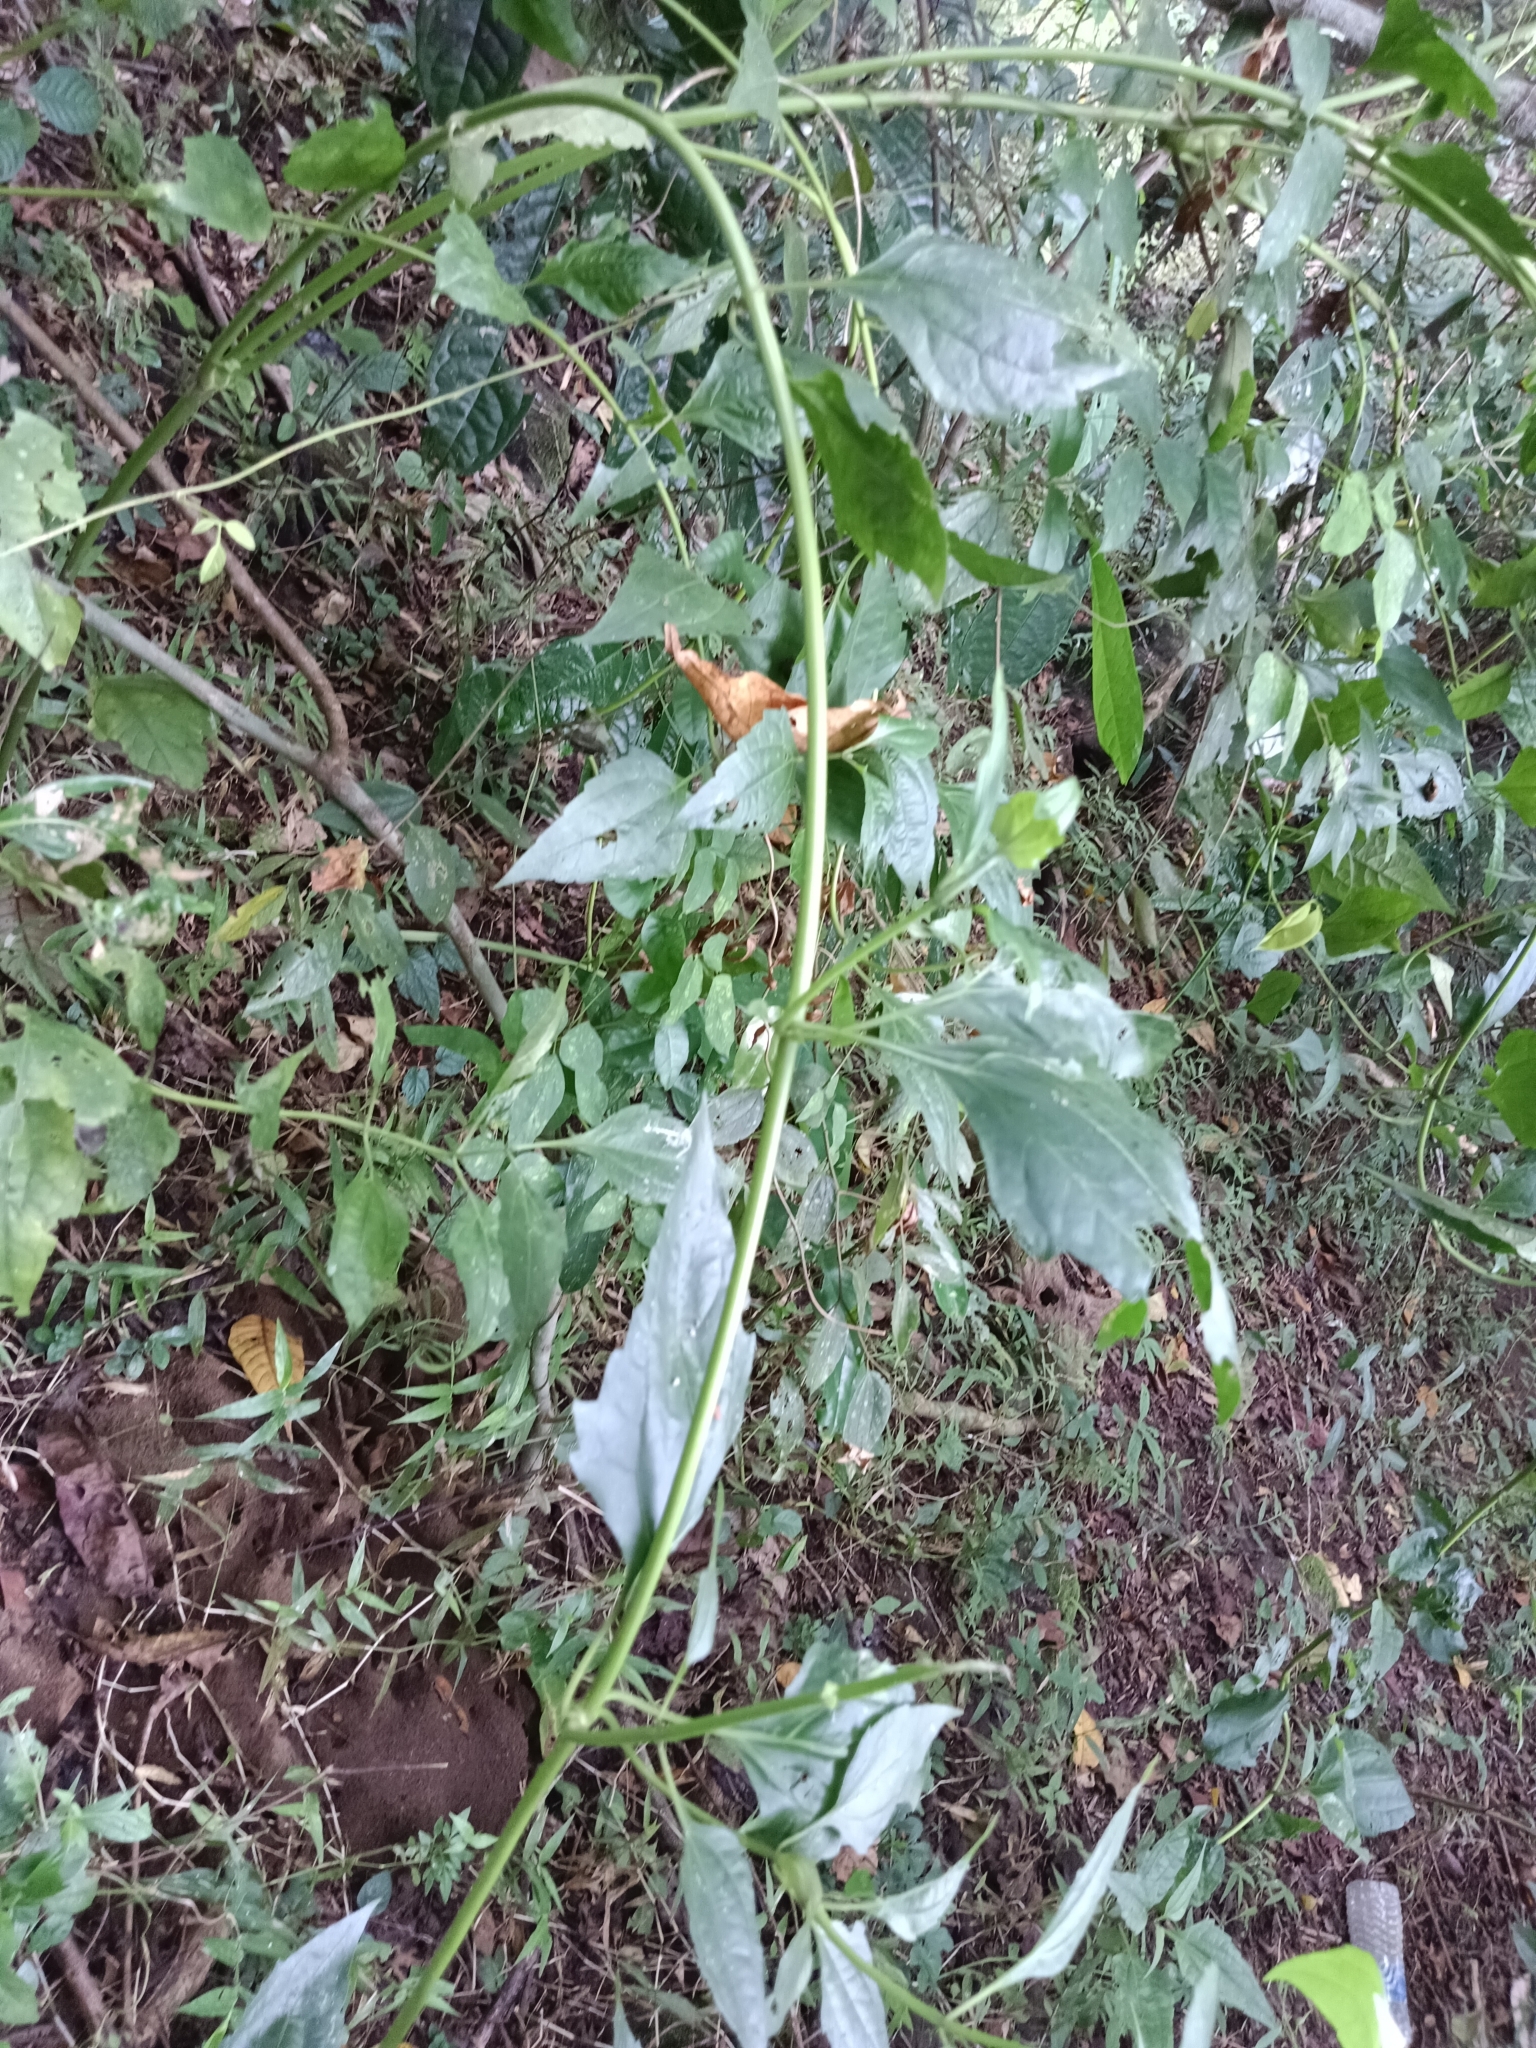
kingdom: Plantae
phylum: Tracheophyta
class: Magnoliopsida
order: Asterales
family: Asteraceae
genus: Chromolaena
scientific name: Chromolaena odorata
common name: Siamweed
